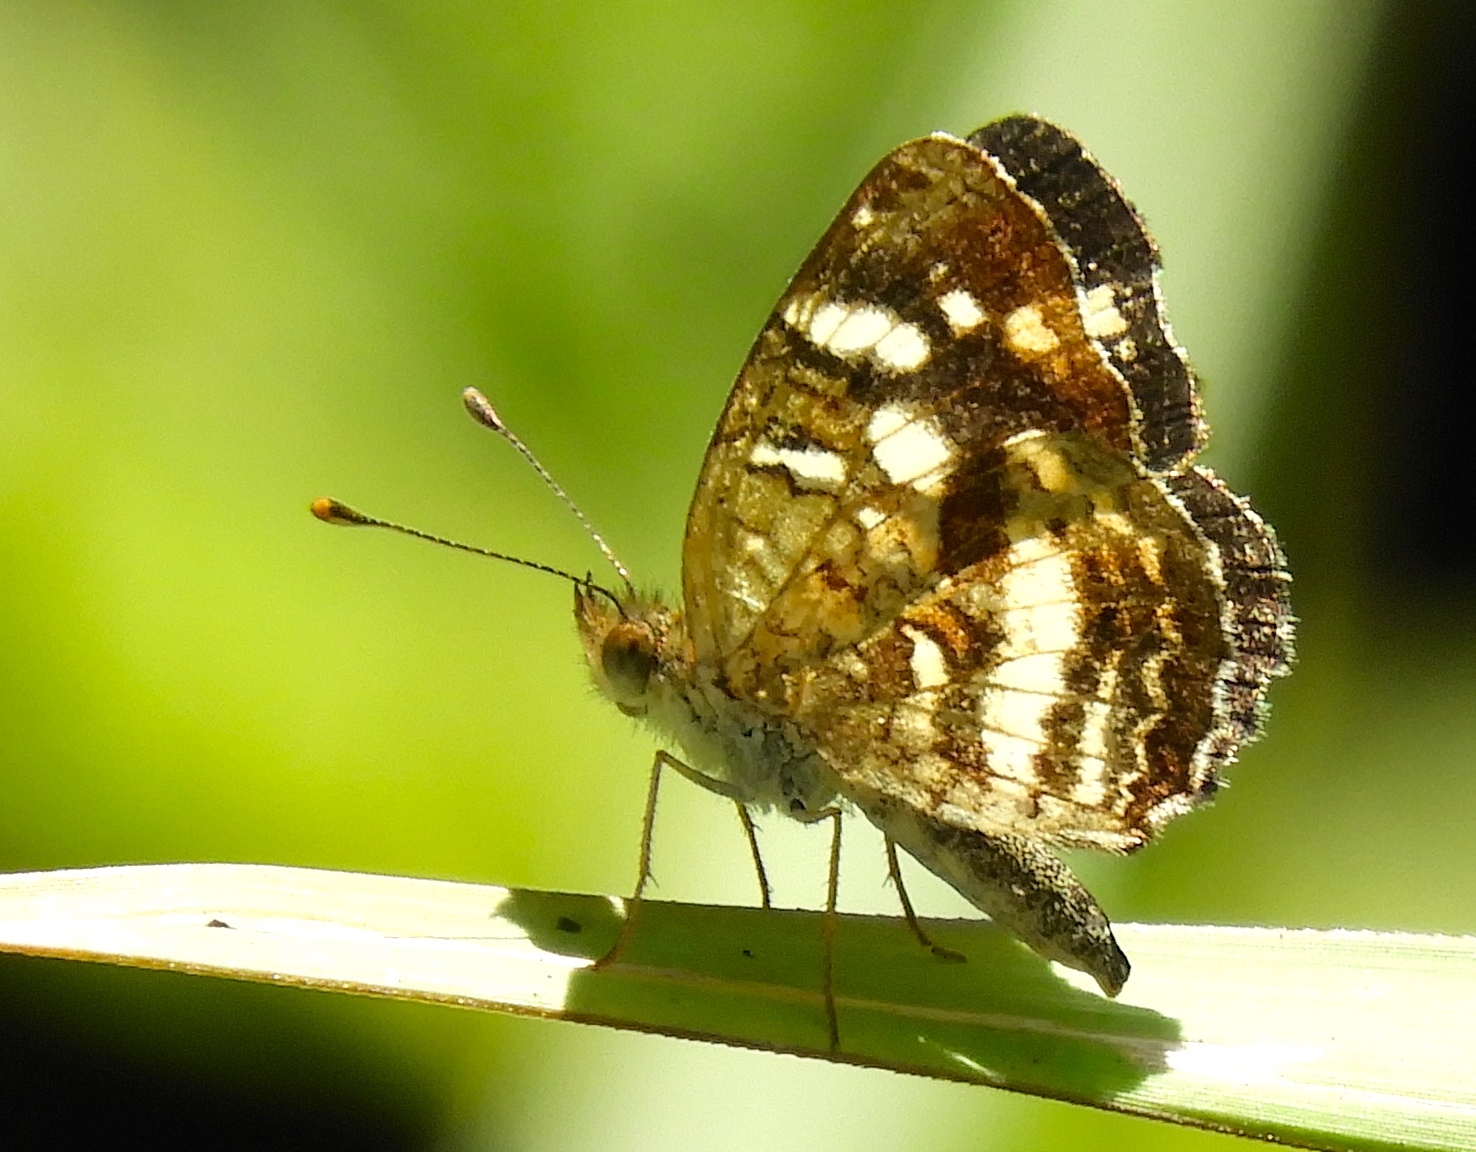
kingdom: Animalia
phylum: Arthropoda
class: Insecta
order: Lepidoptera
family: Nymphalidae
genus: Anthanassa
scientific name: Anthanassa tulcis
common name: Pale-banded crescent
